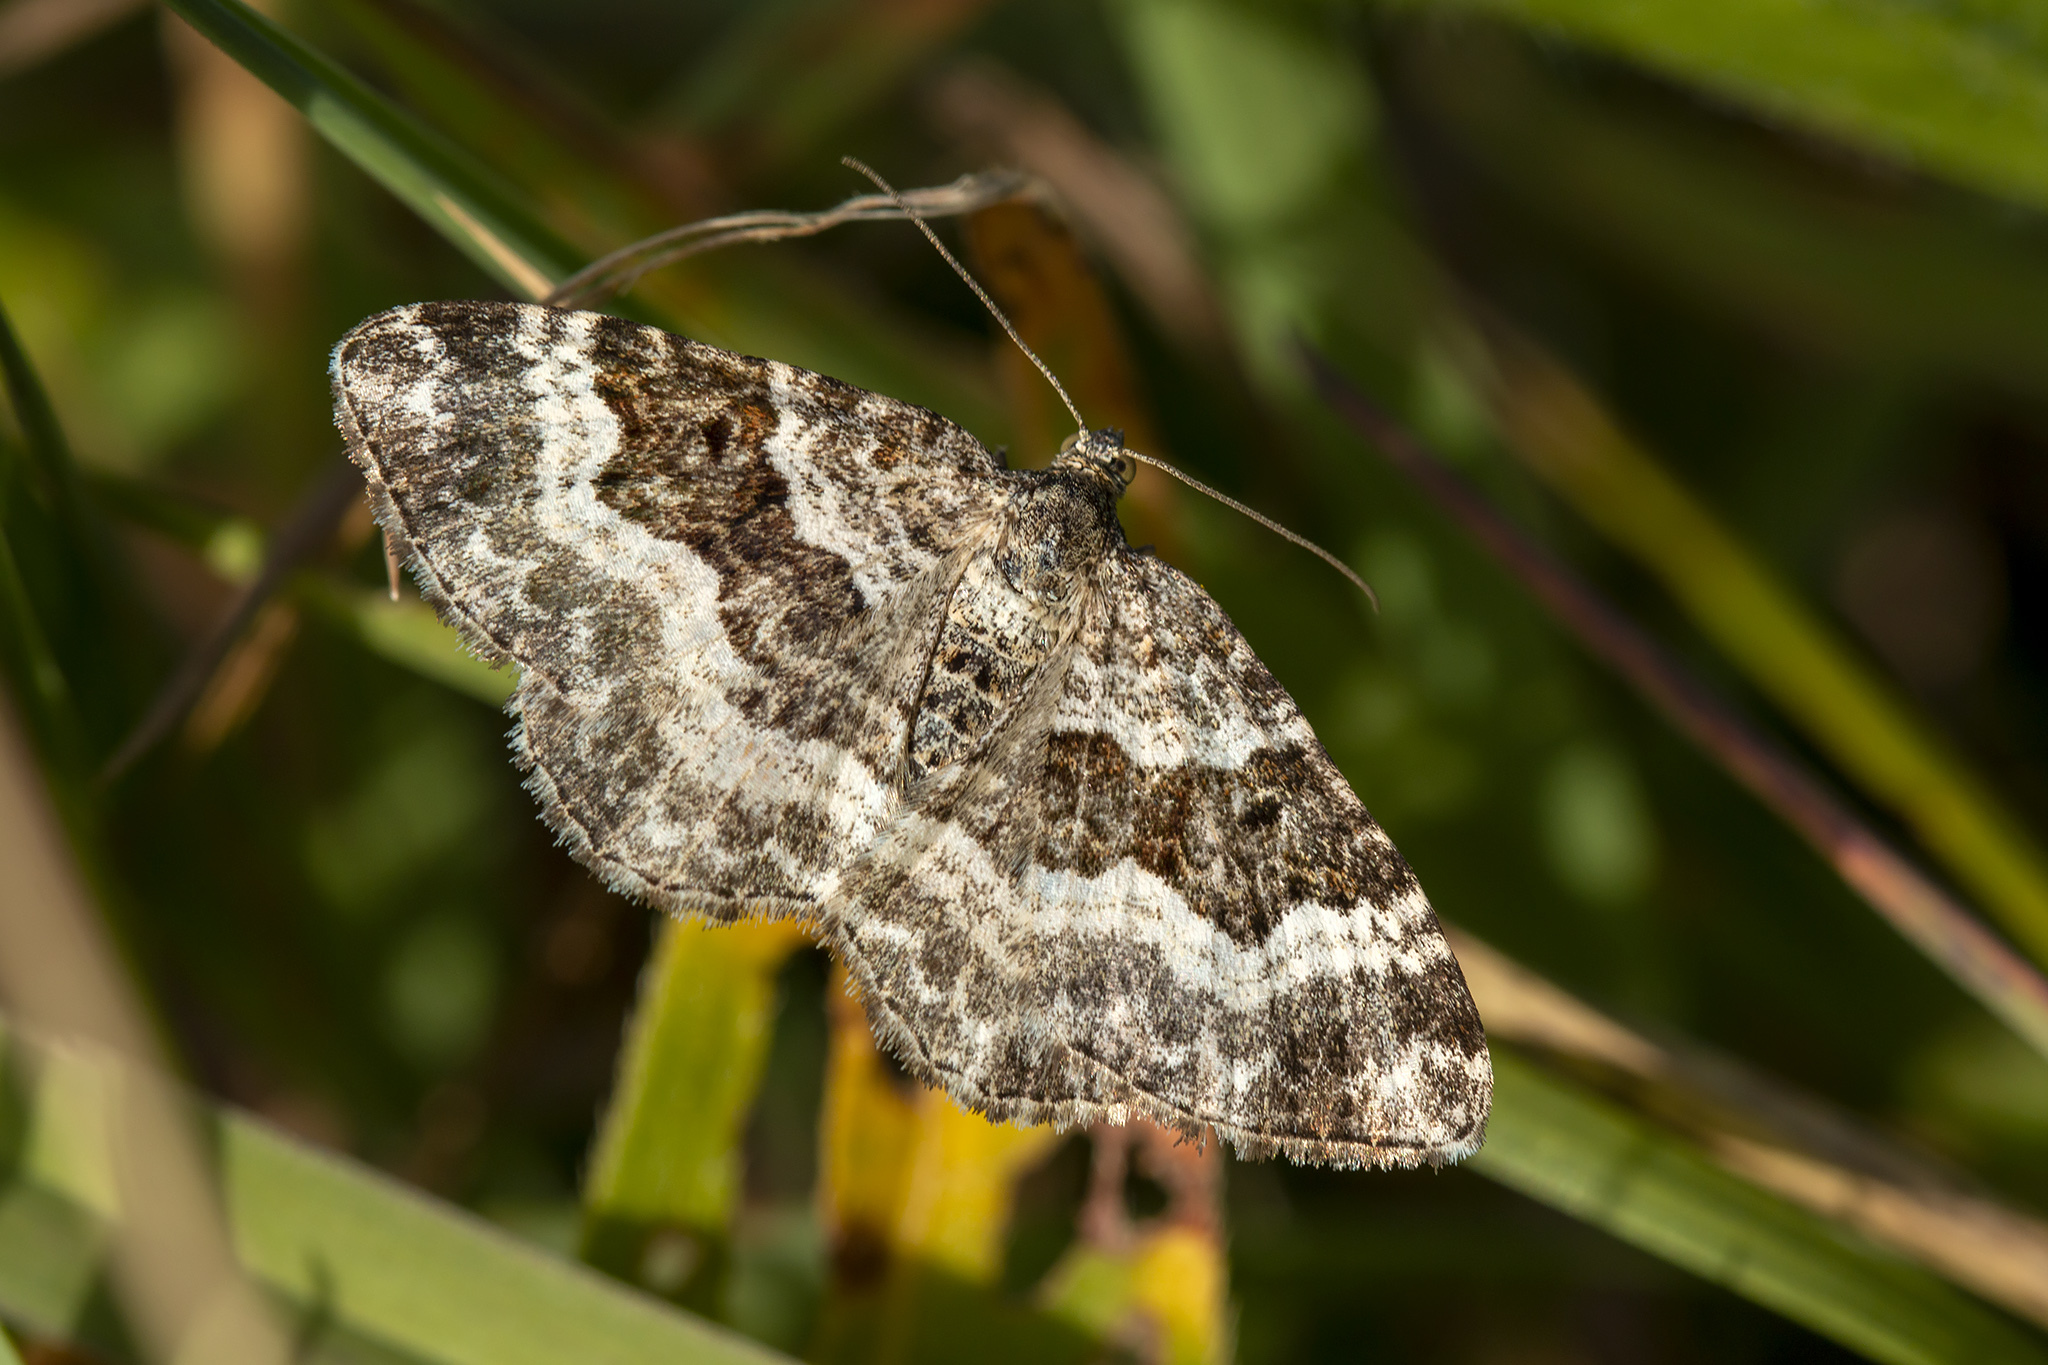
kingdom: Animalia
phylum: Arthropoda
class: Insecta
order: Lepidoptera
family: Geometridae
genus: Epirrhoe
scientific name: Epirrhoe alternata
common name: Common carpet
